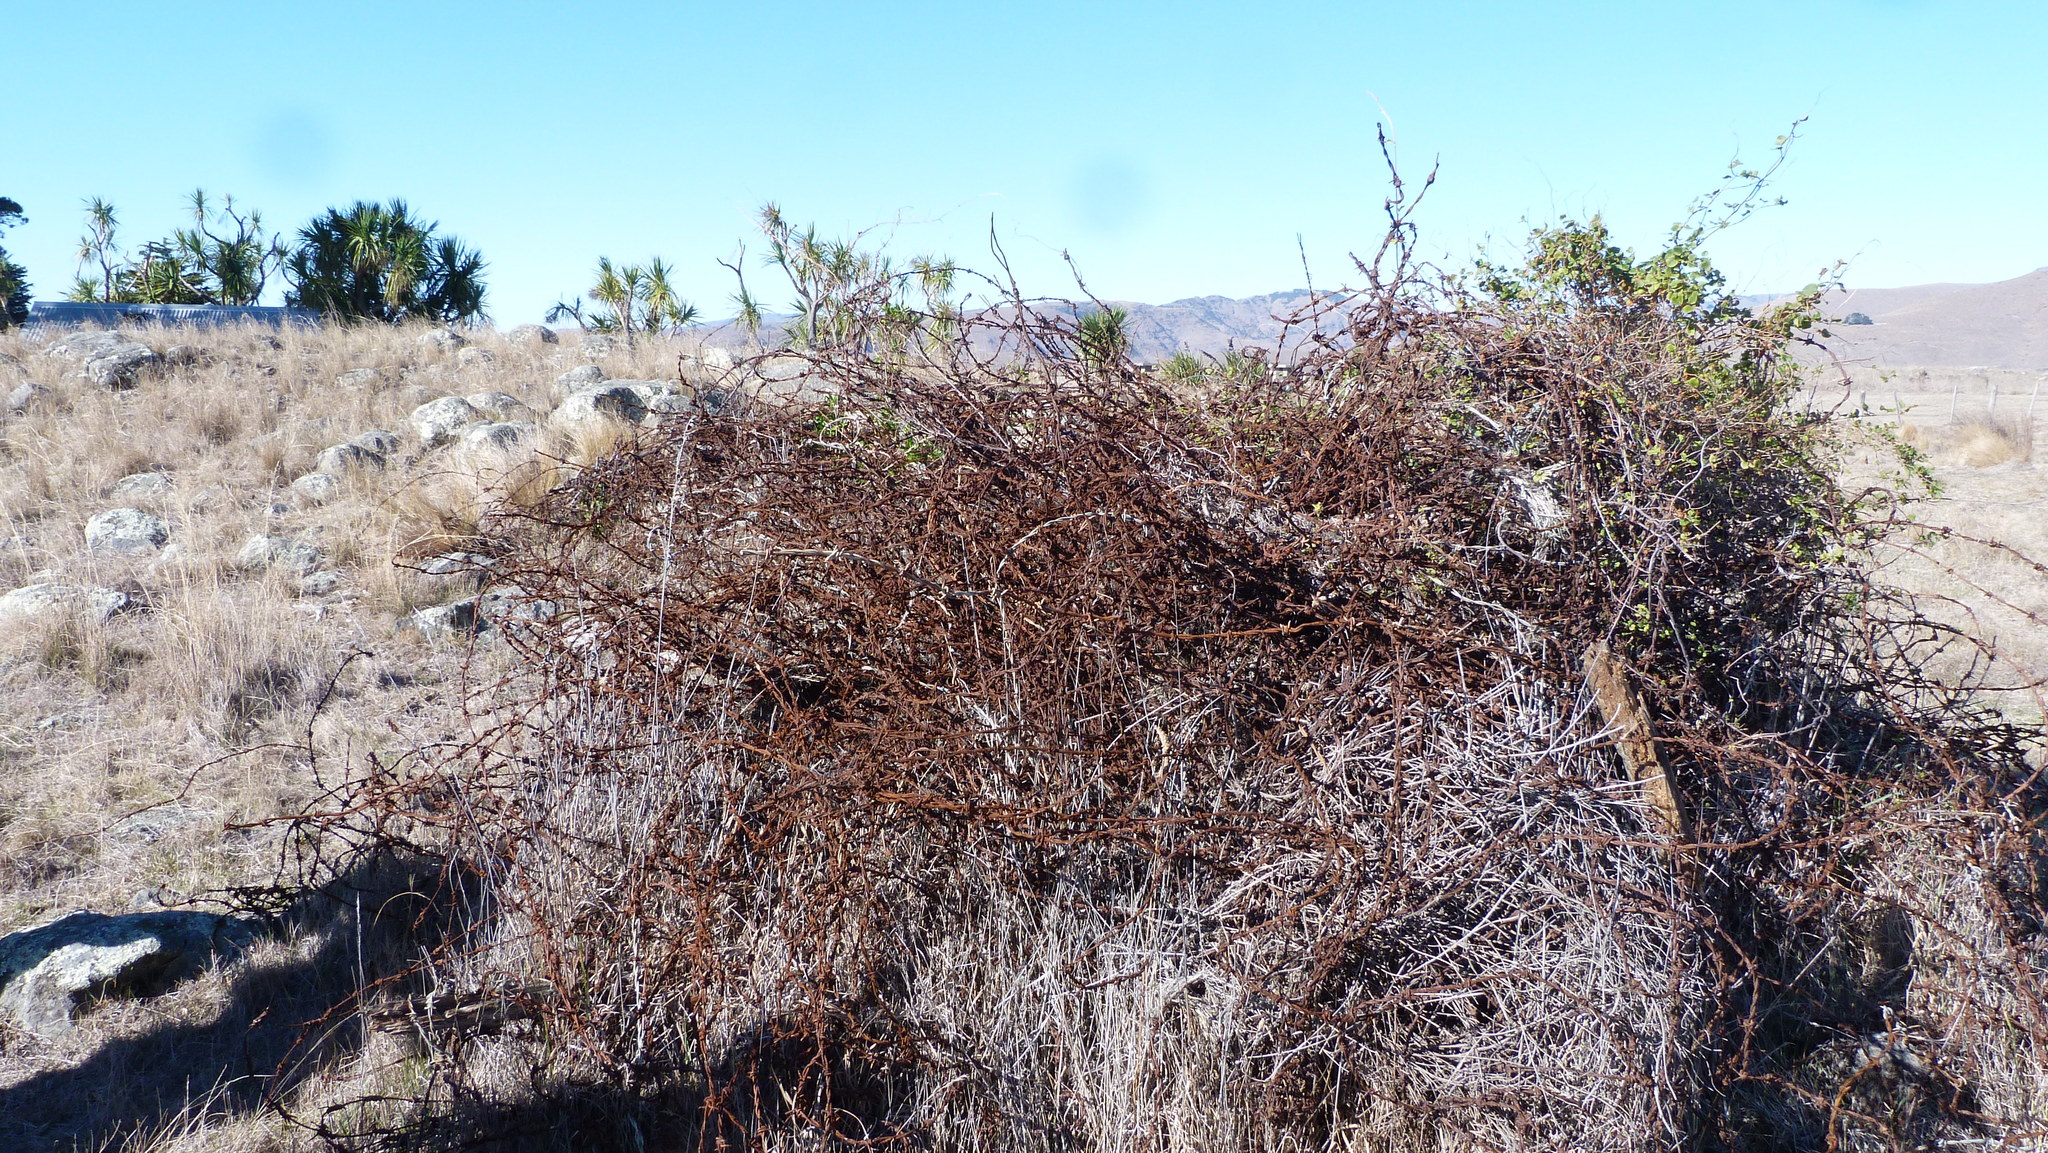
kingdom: Plantae
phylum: Tracheophyta
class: Liliopsida
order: Asparagales
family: Asparagaceae
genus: Cordyline
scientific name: Cordyline australis
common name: Cabbage-palm
